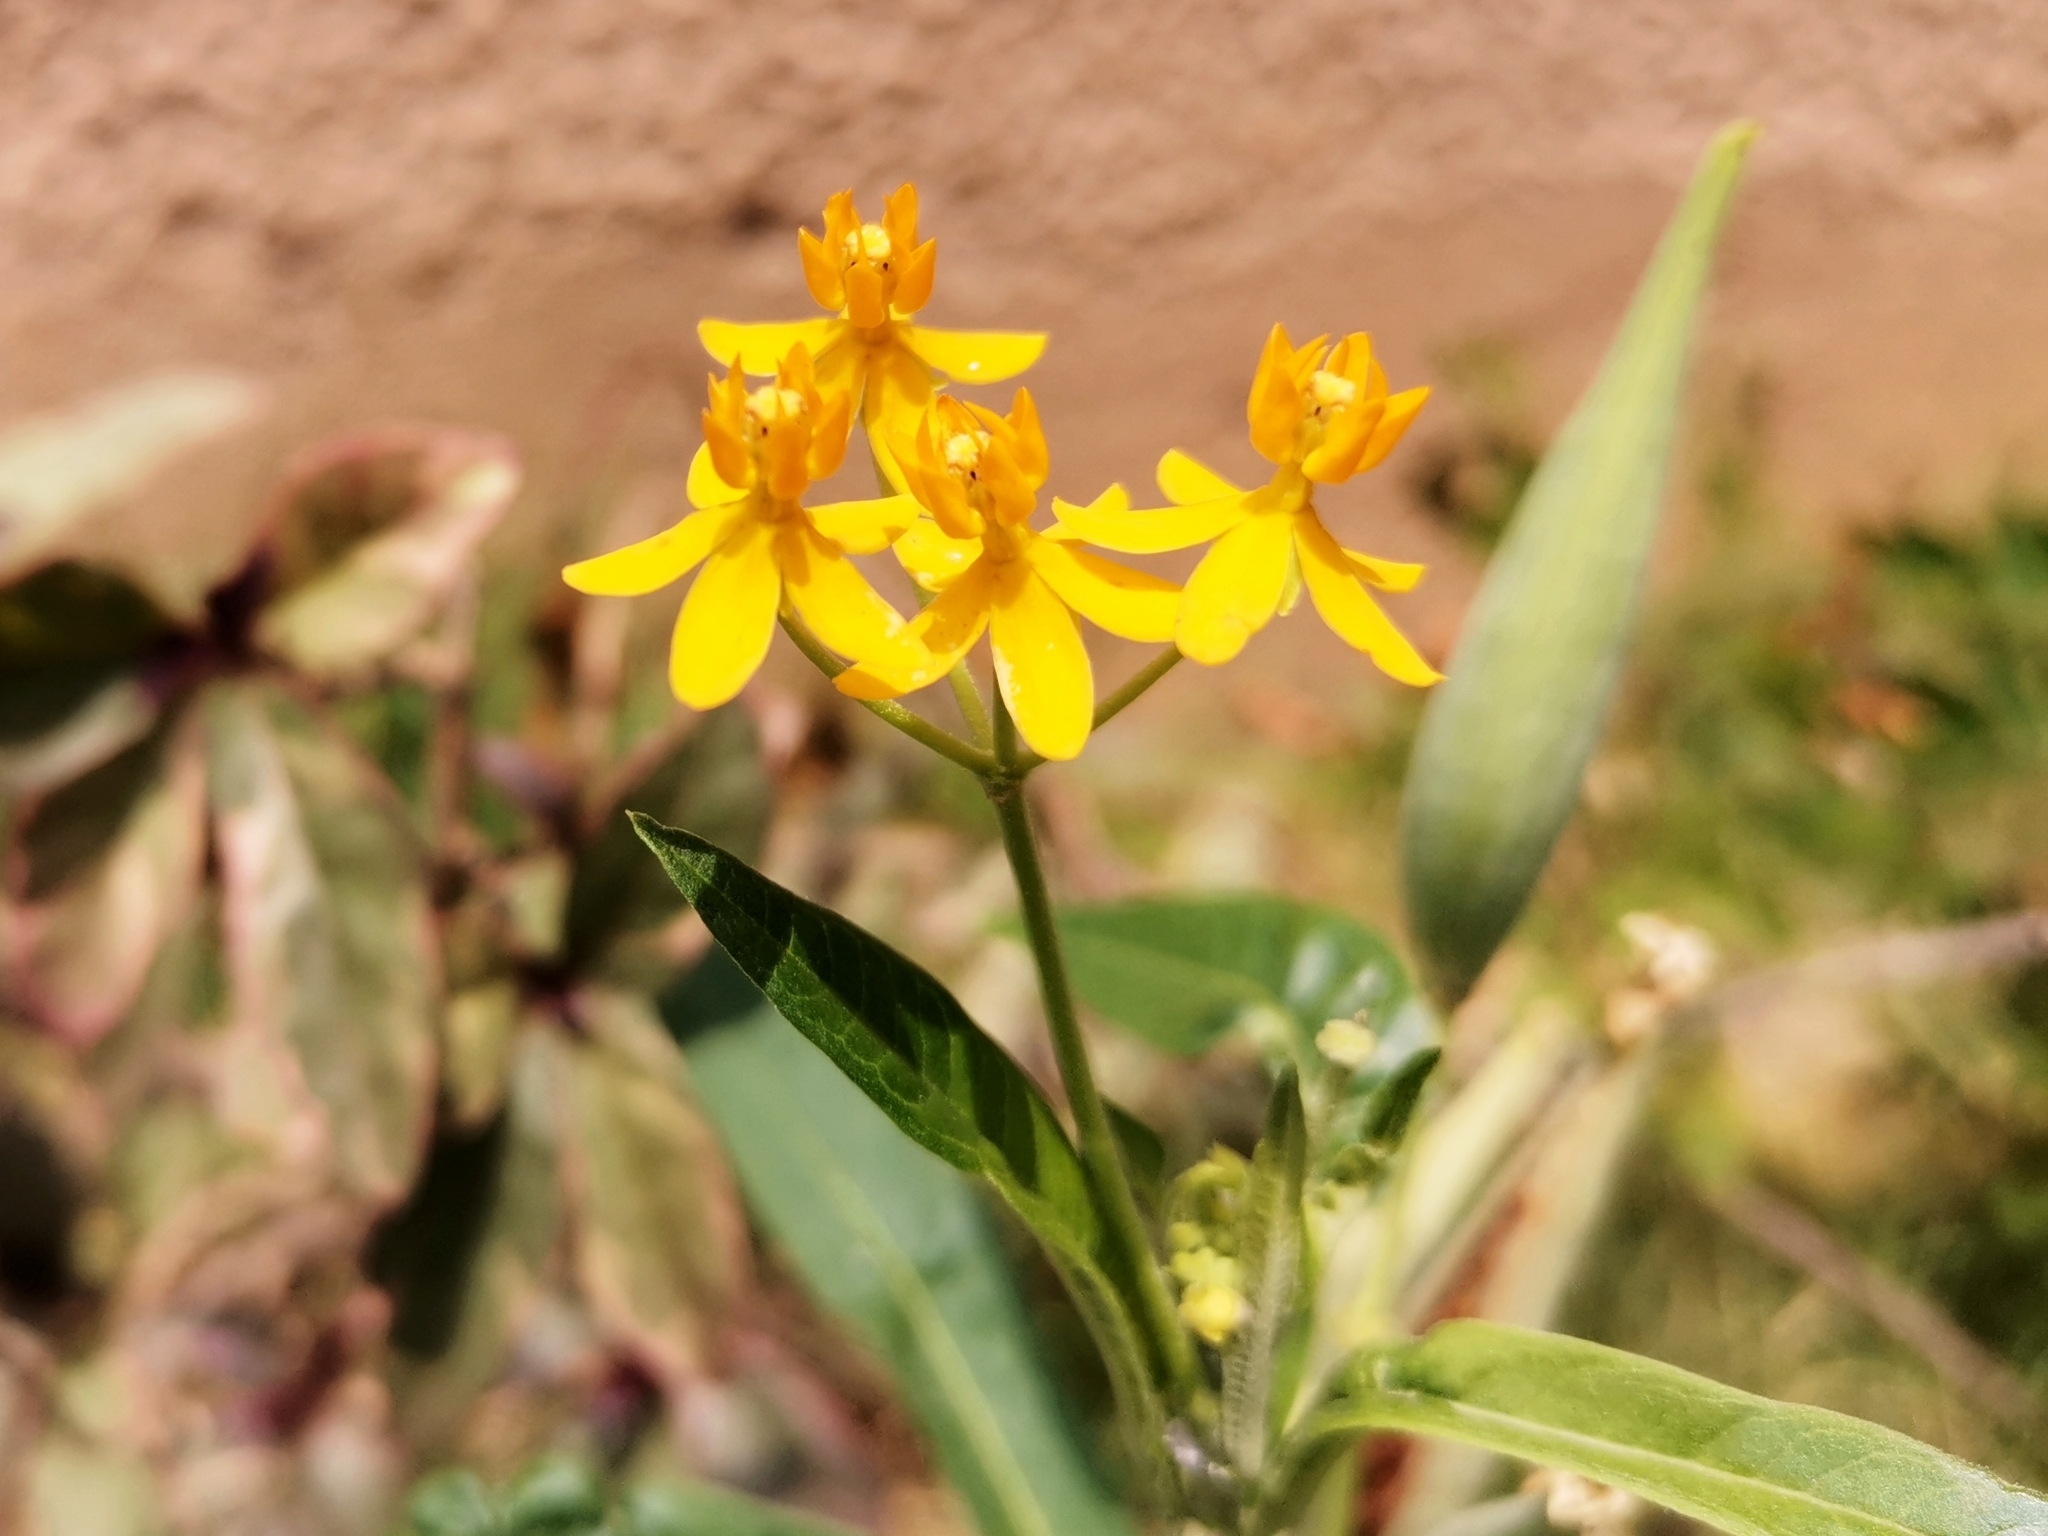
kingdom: Plantae
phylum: Tracheophyta
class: Magnoliopsida
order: Gentianales
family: Apocynaceae
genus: Asclepias
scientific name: Asclepias curassavica
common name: Bloodflower
